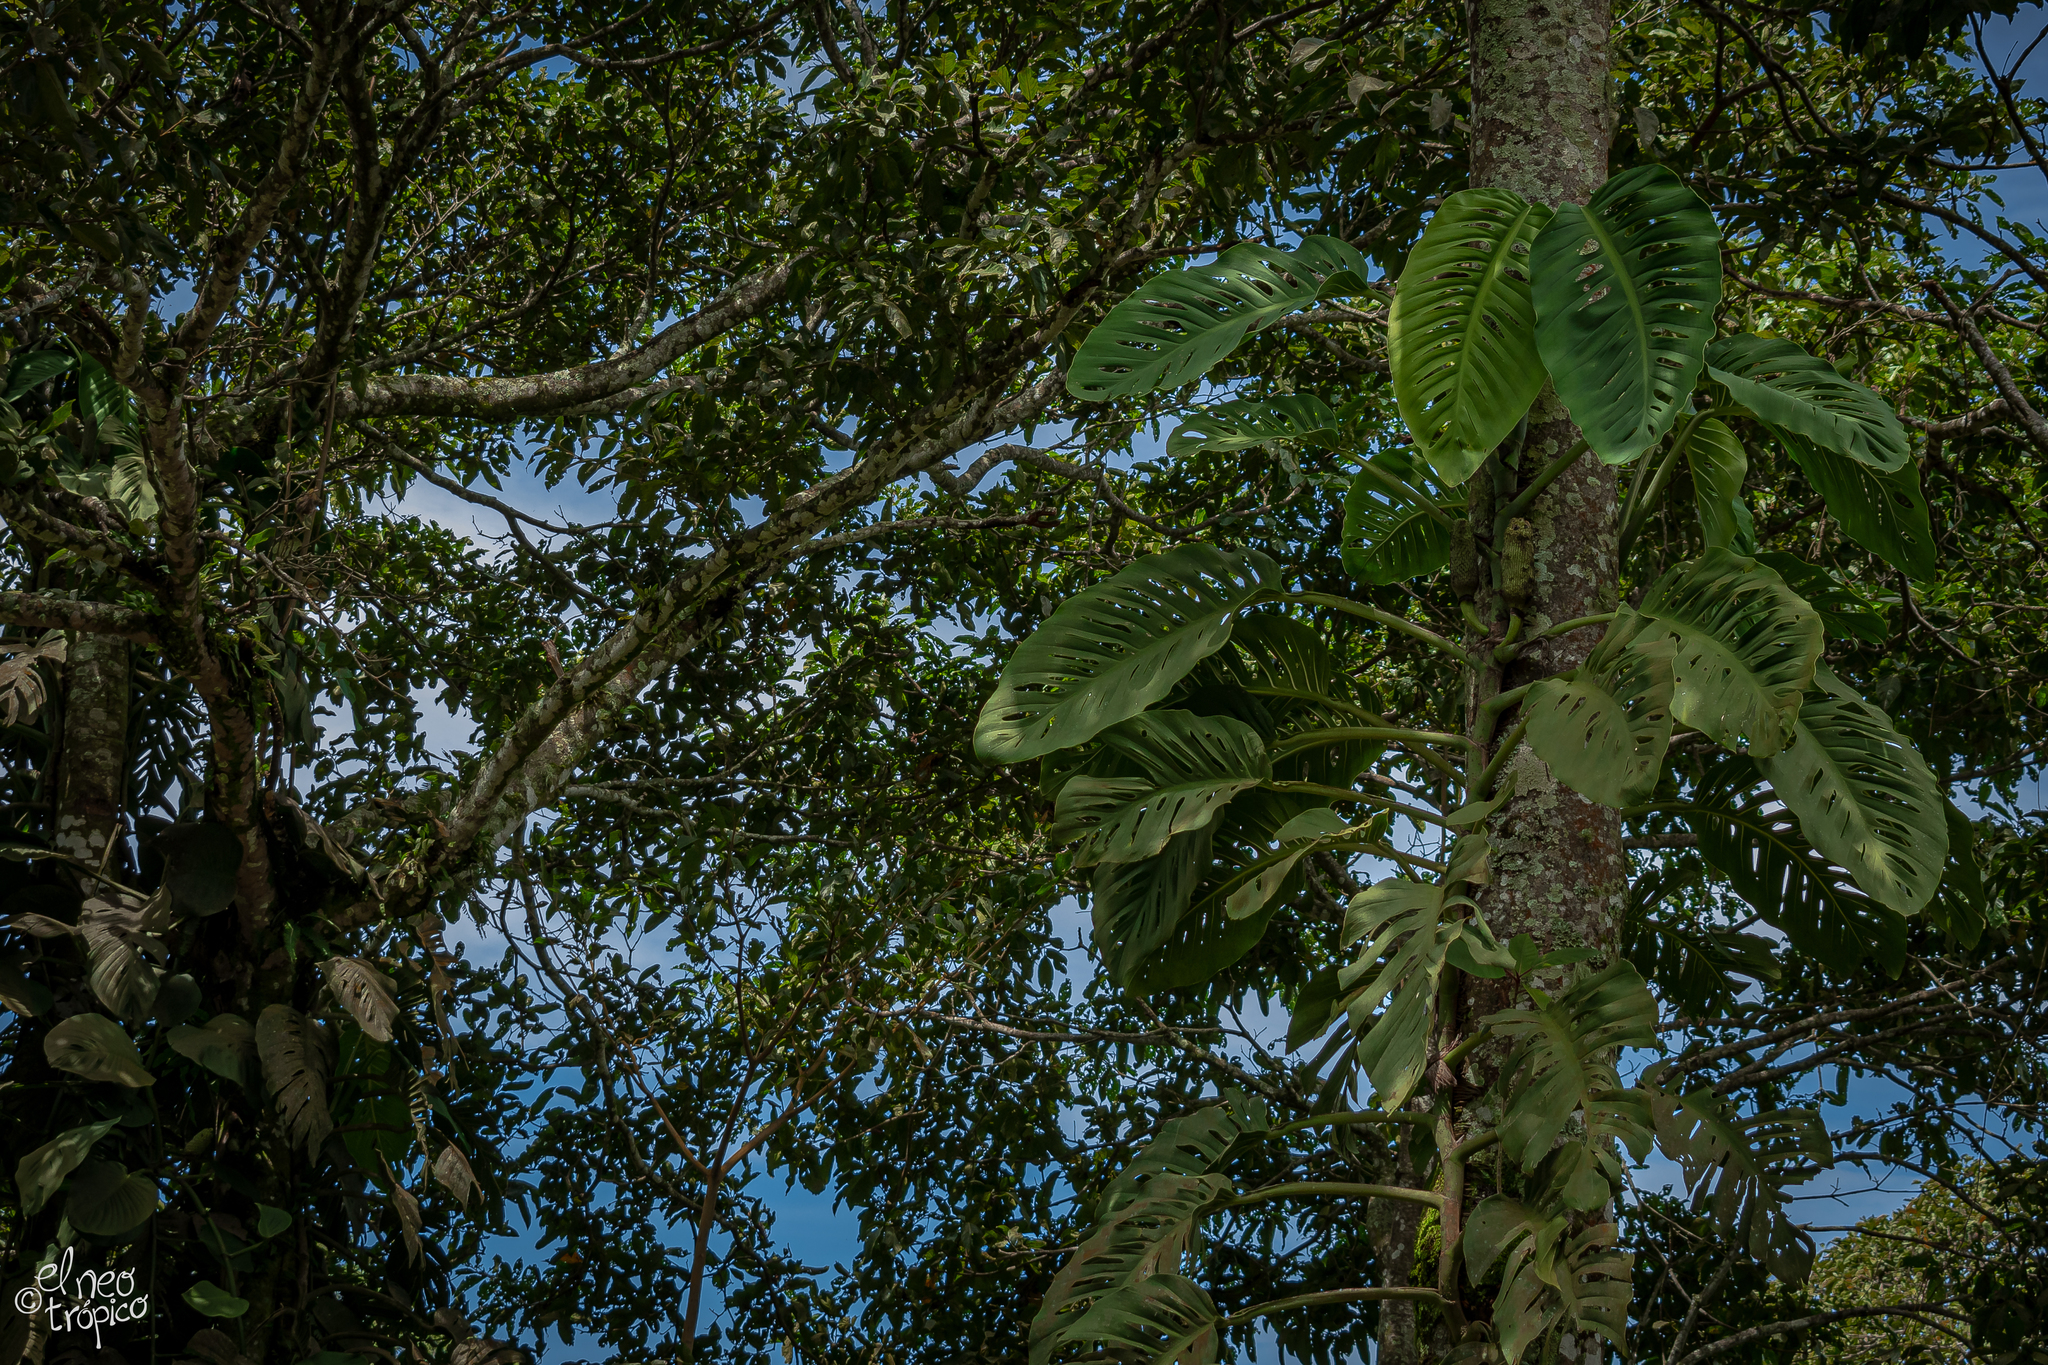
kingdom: Plantae
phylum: Tracheophyta
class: Liliopsida
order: Alismatales
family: Araceae
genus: Monstera
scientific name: Monstera acuminata
